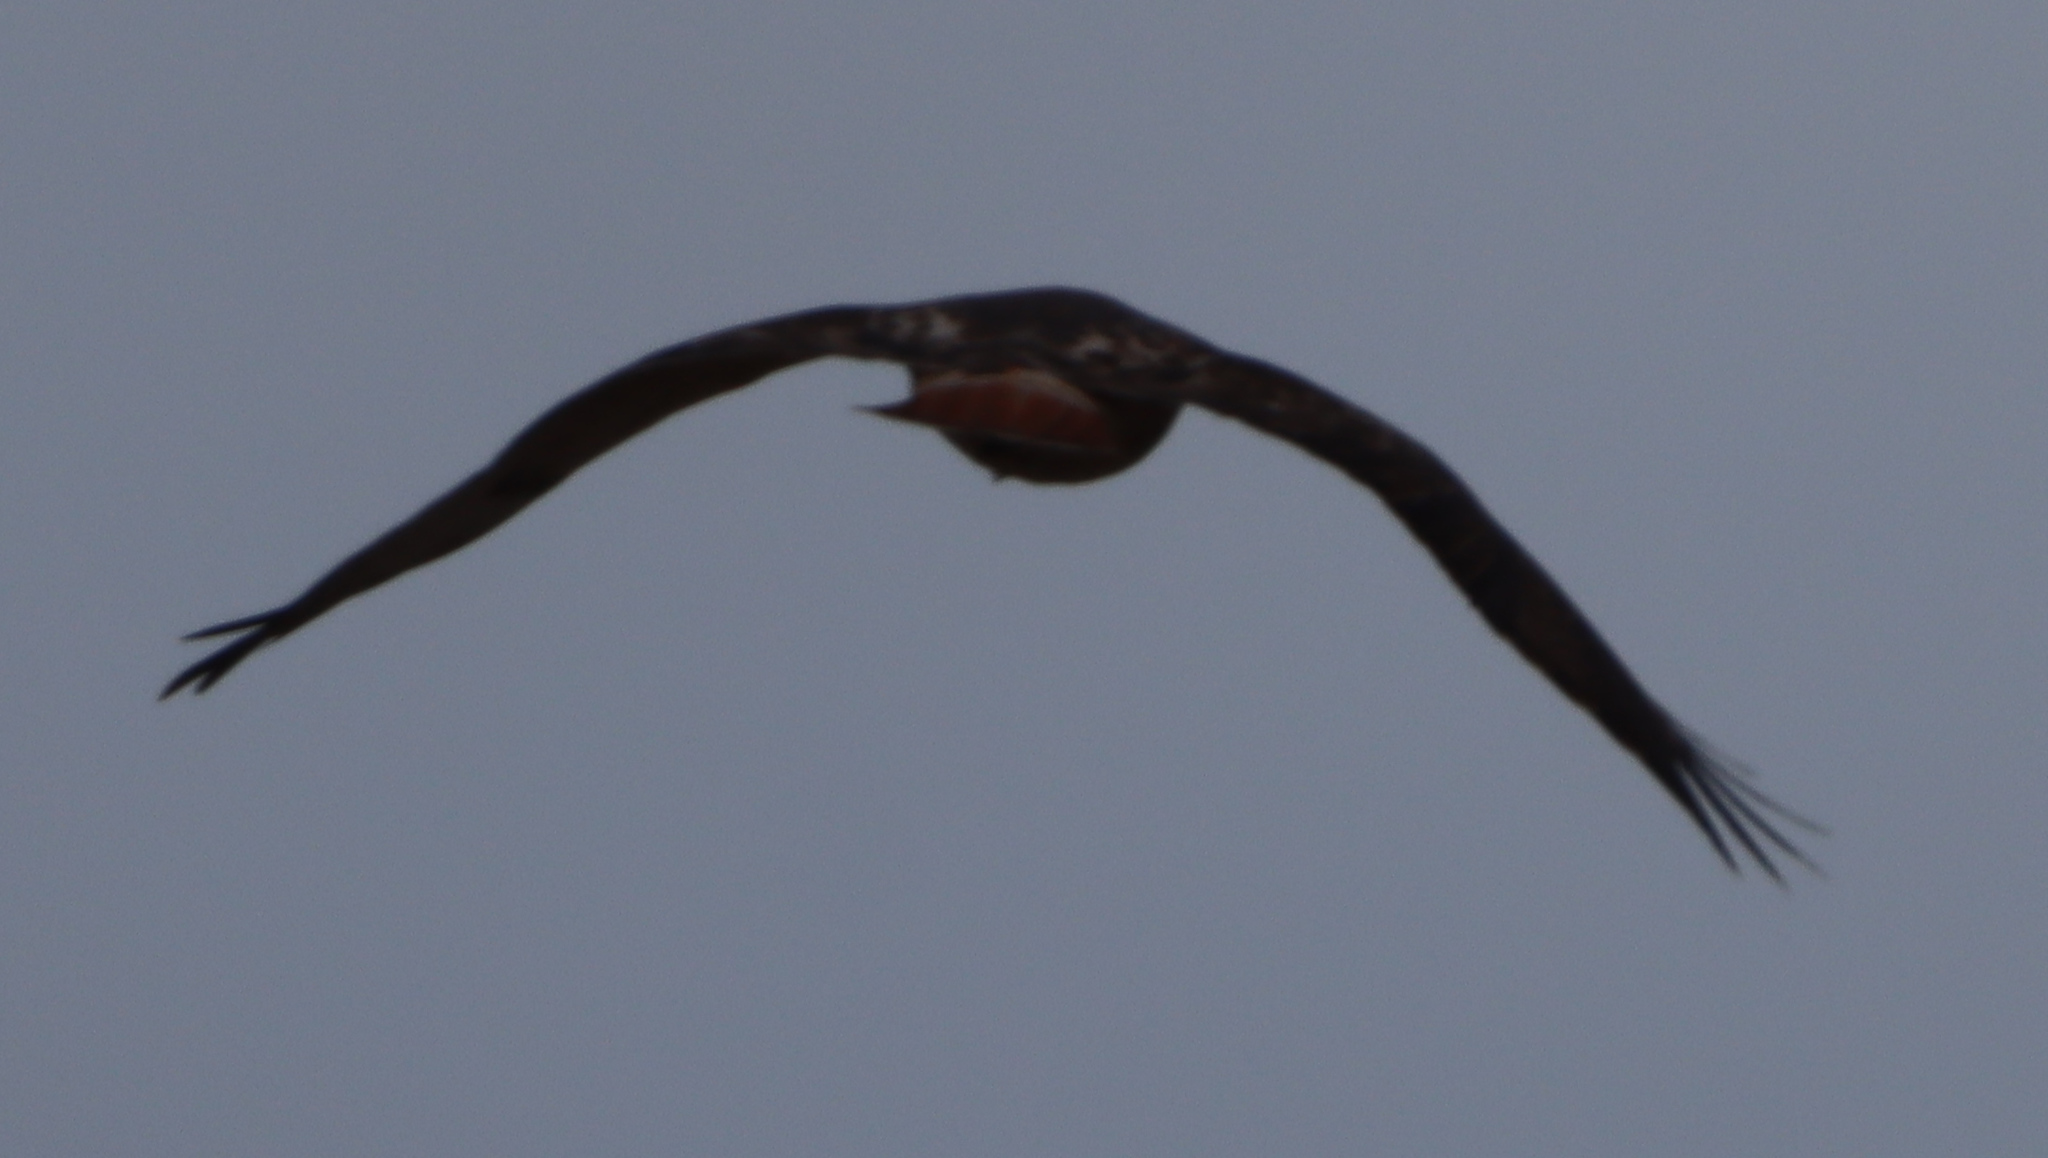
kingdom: Animalia
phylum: Chordata
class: Aves
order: Accipitriformes
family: Accipitridae
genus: Buteo
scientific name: Buteo jamaicensis
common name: Red-tailed hawk
